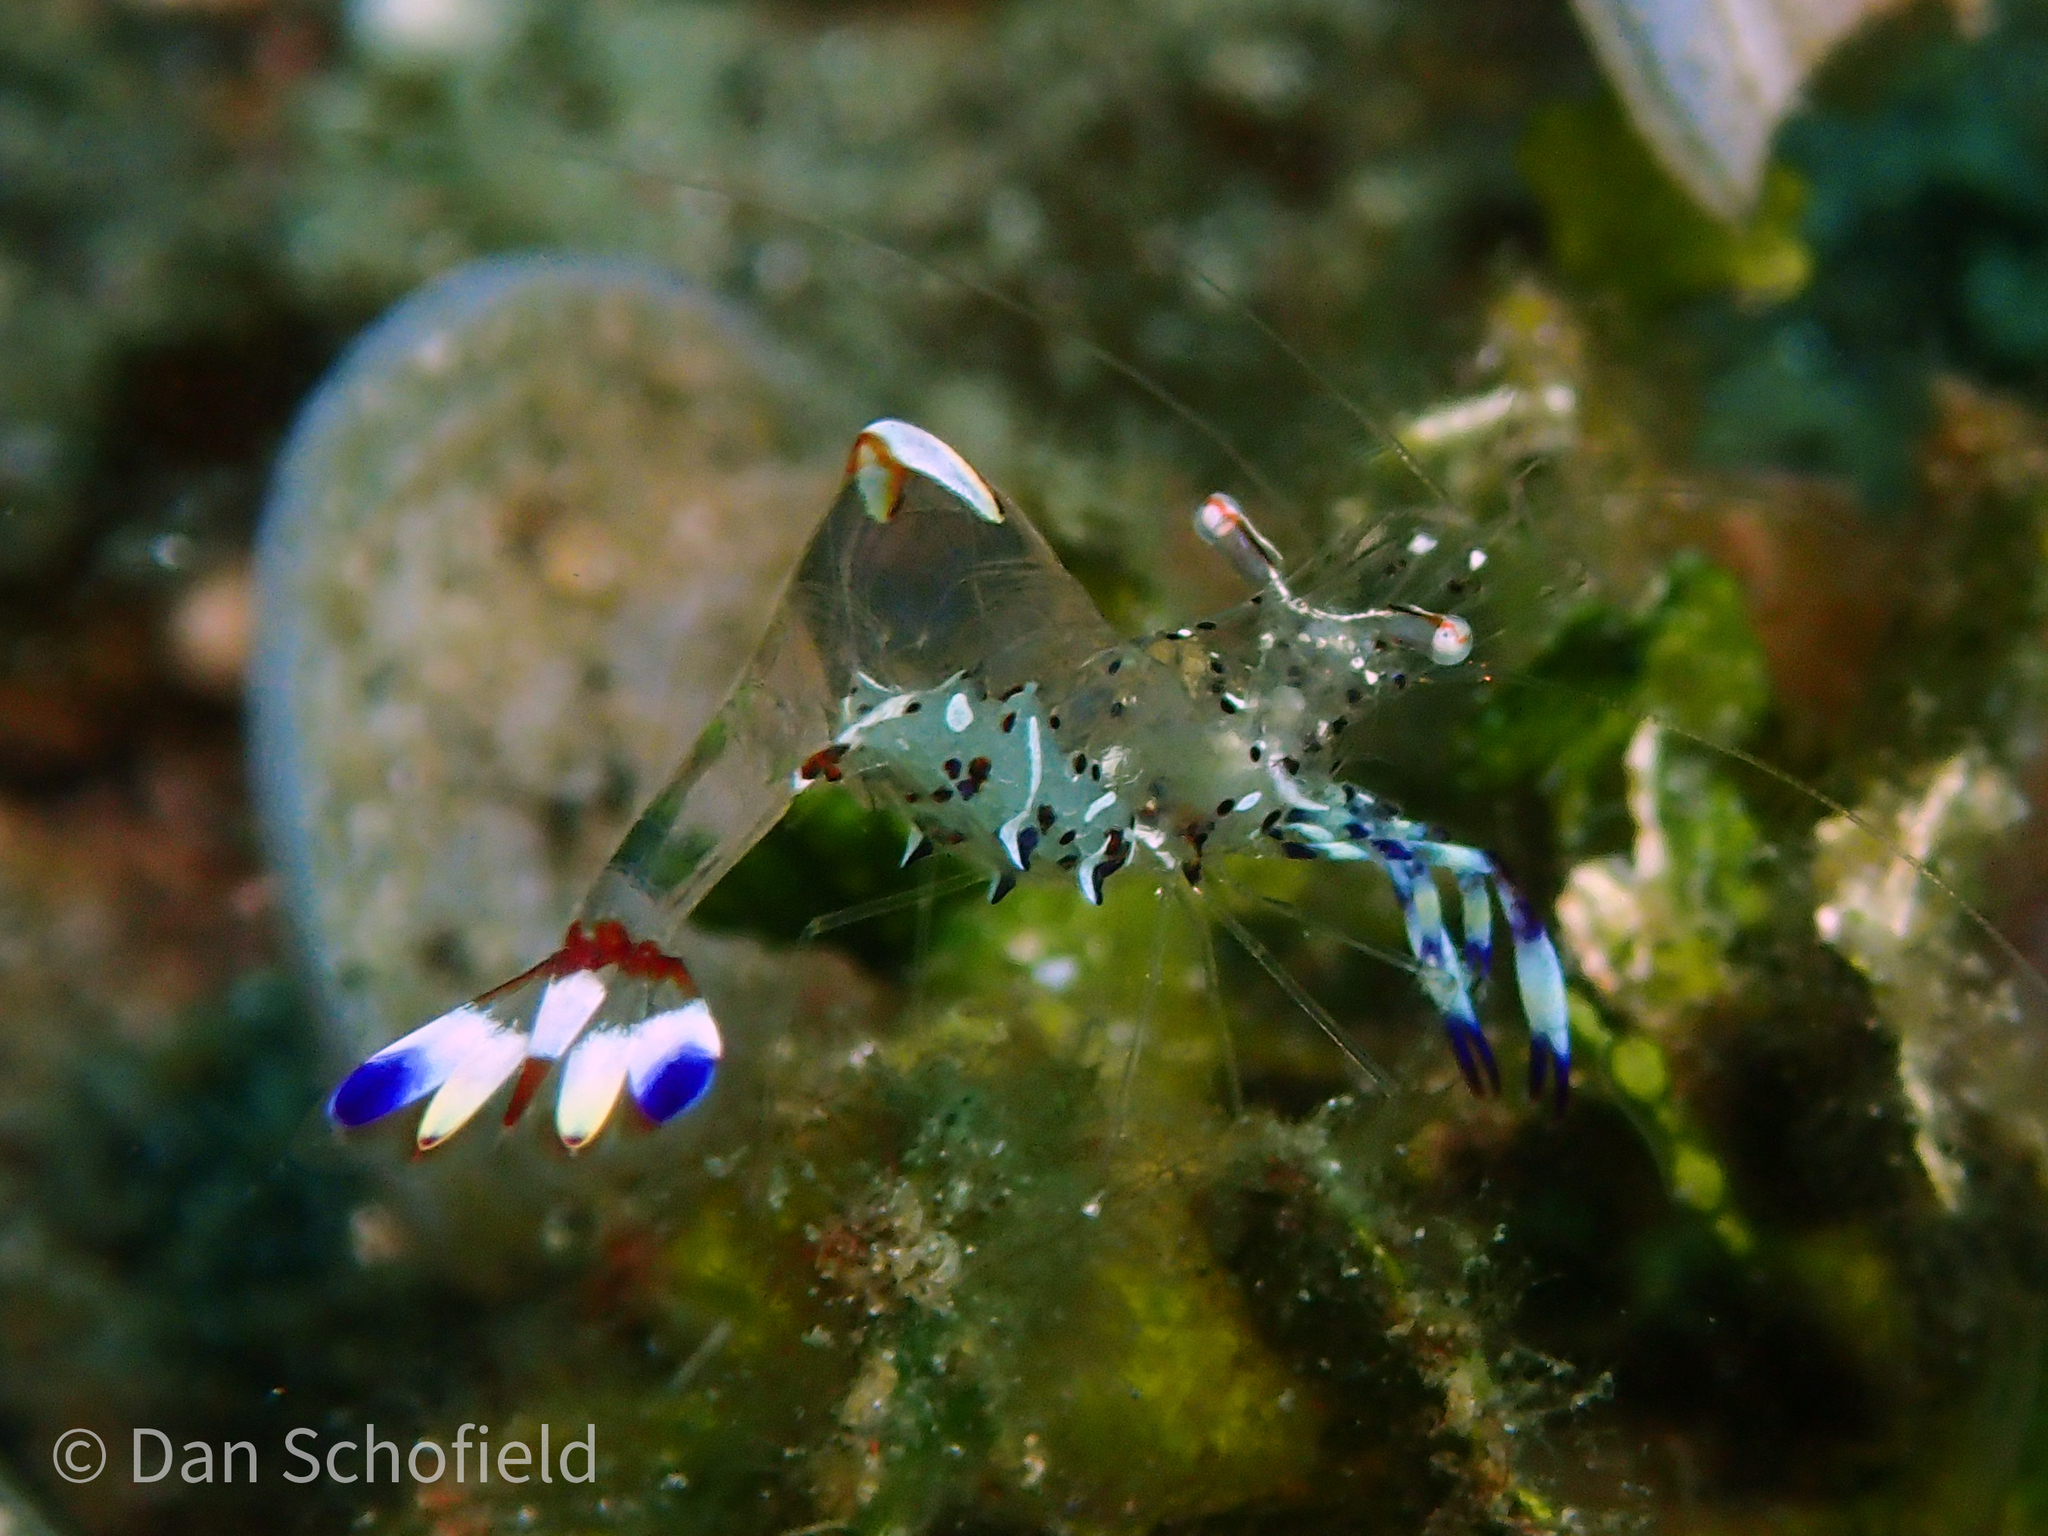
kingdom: Animalia
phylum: Arthropoda
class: Malacostraca
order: Decapoda
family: Palaemonidae
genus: Ancylomenes
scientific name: Ancylomenes holthuisi
